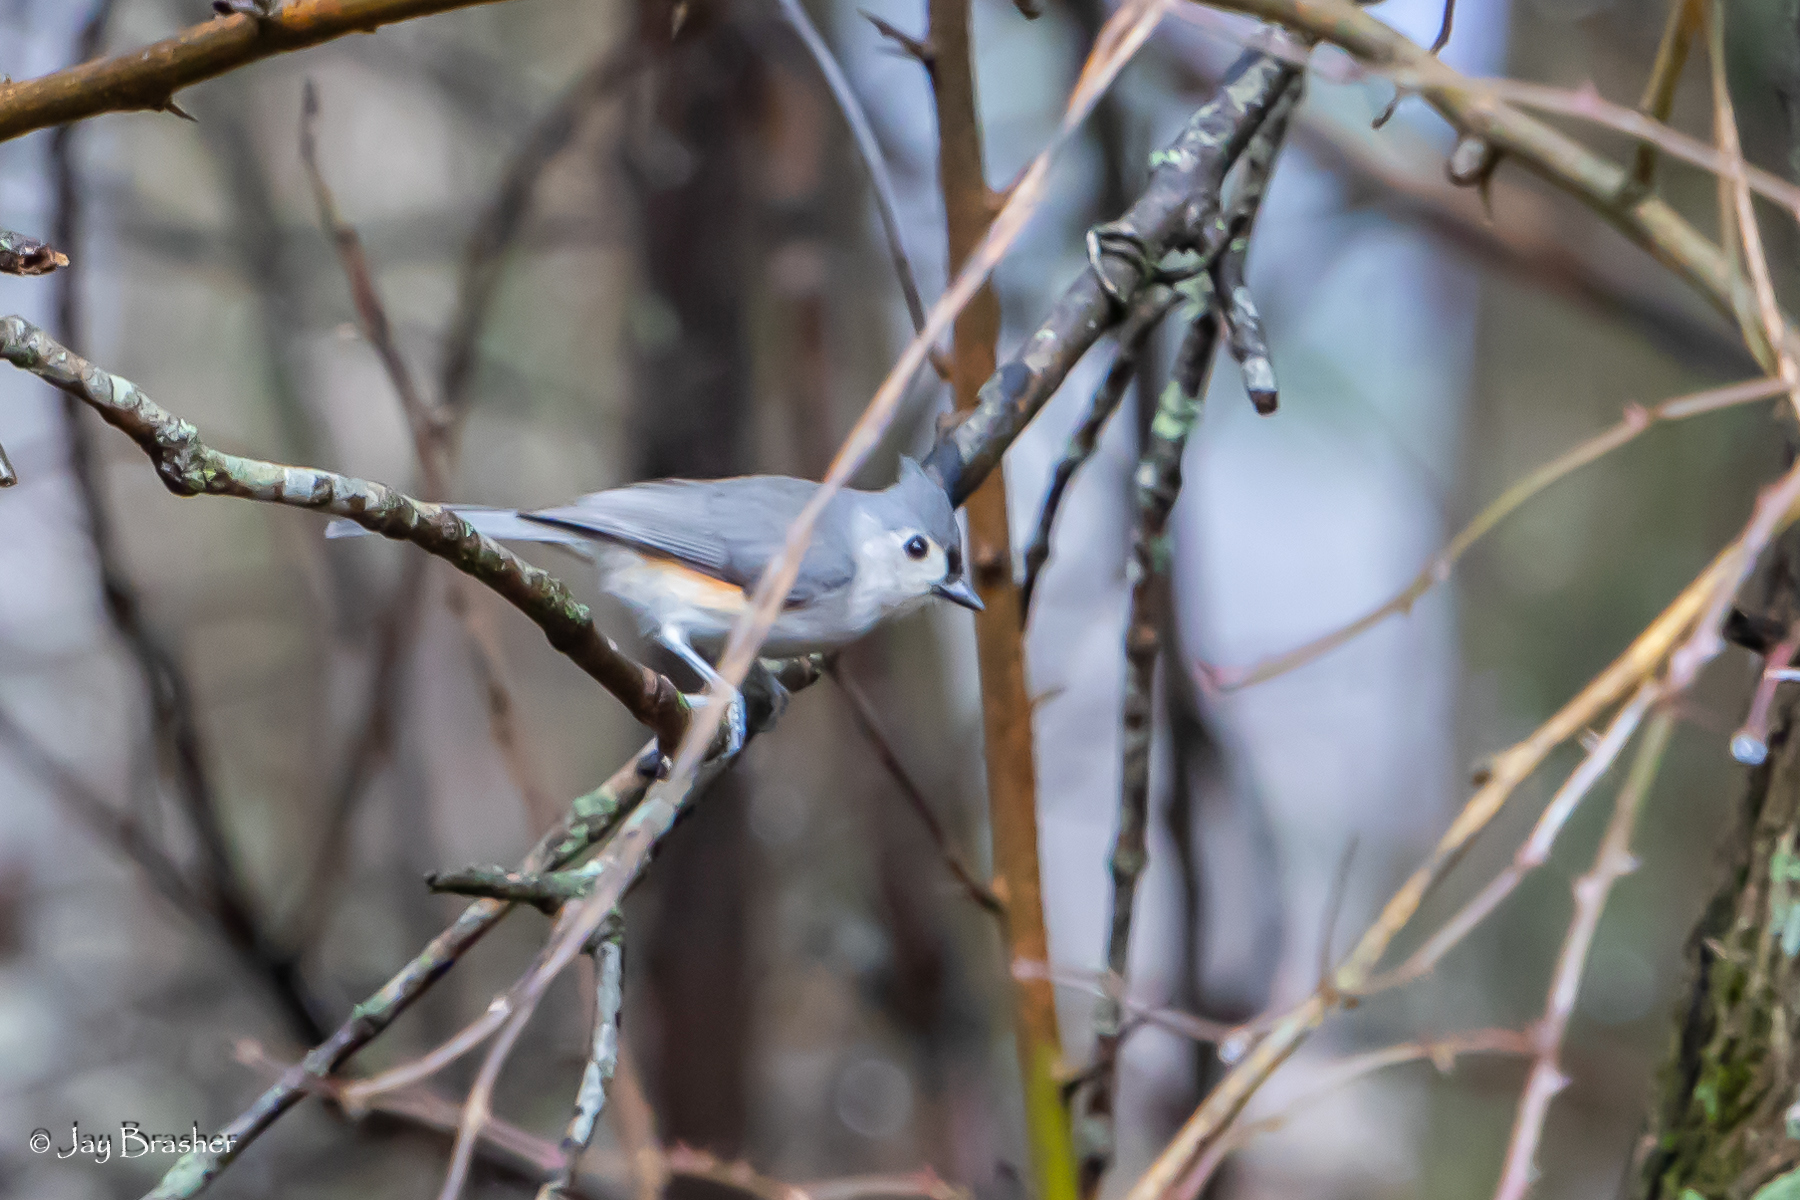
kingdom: Animalia
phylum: Chordata
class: Aves
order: Passeriformes
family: Paridae
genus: Baeolophus
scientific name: Baeolophus bicolor
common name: Tufted titmouse
